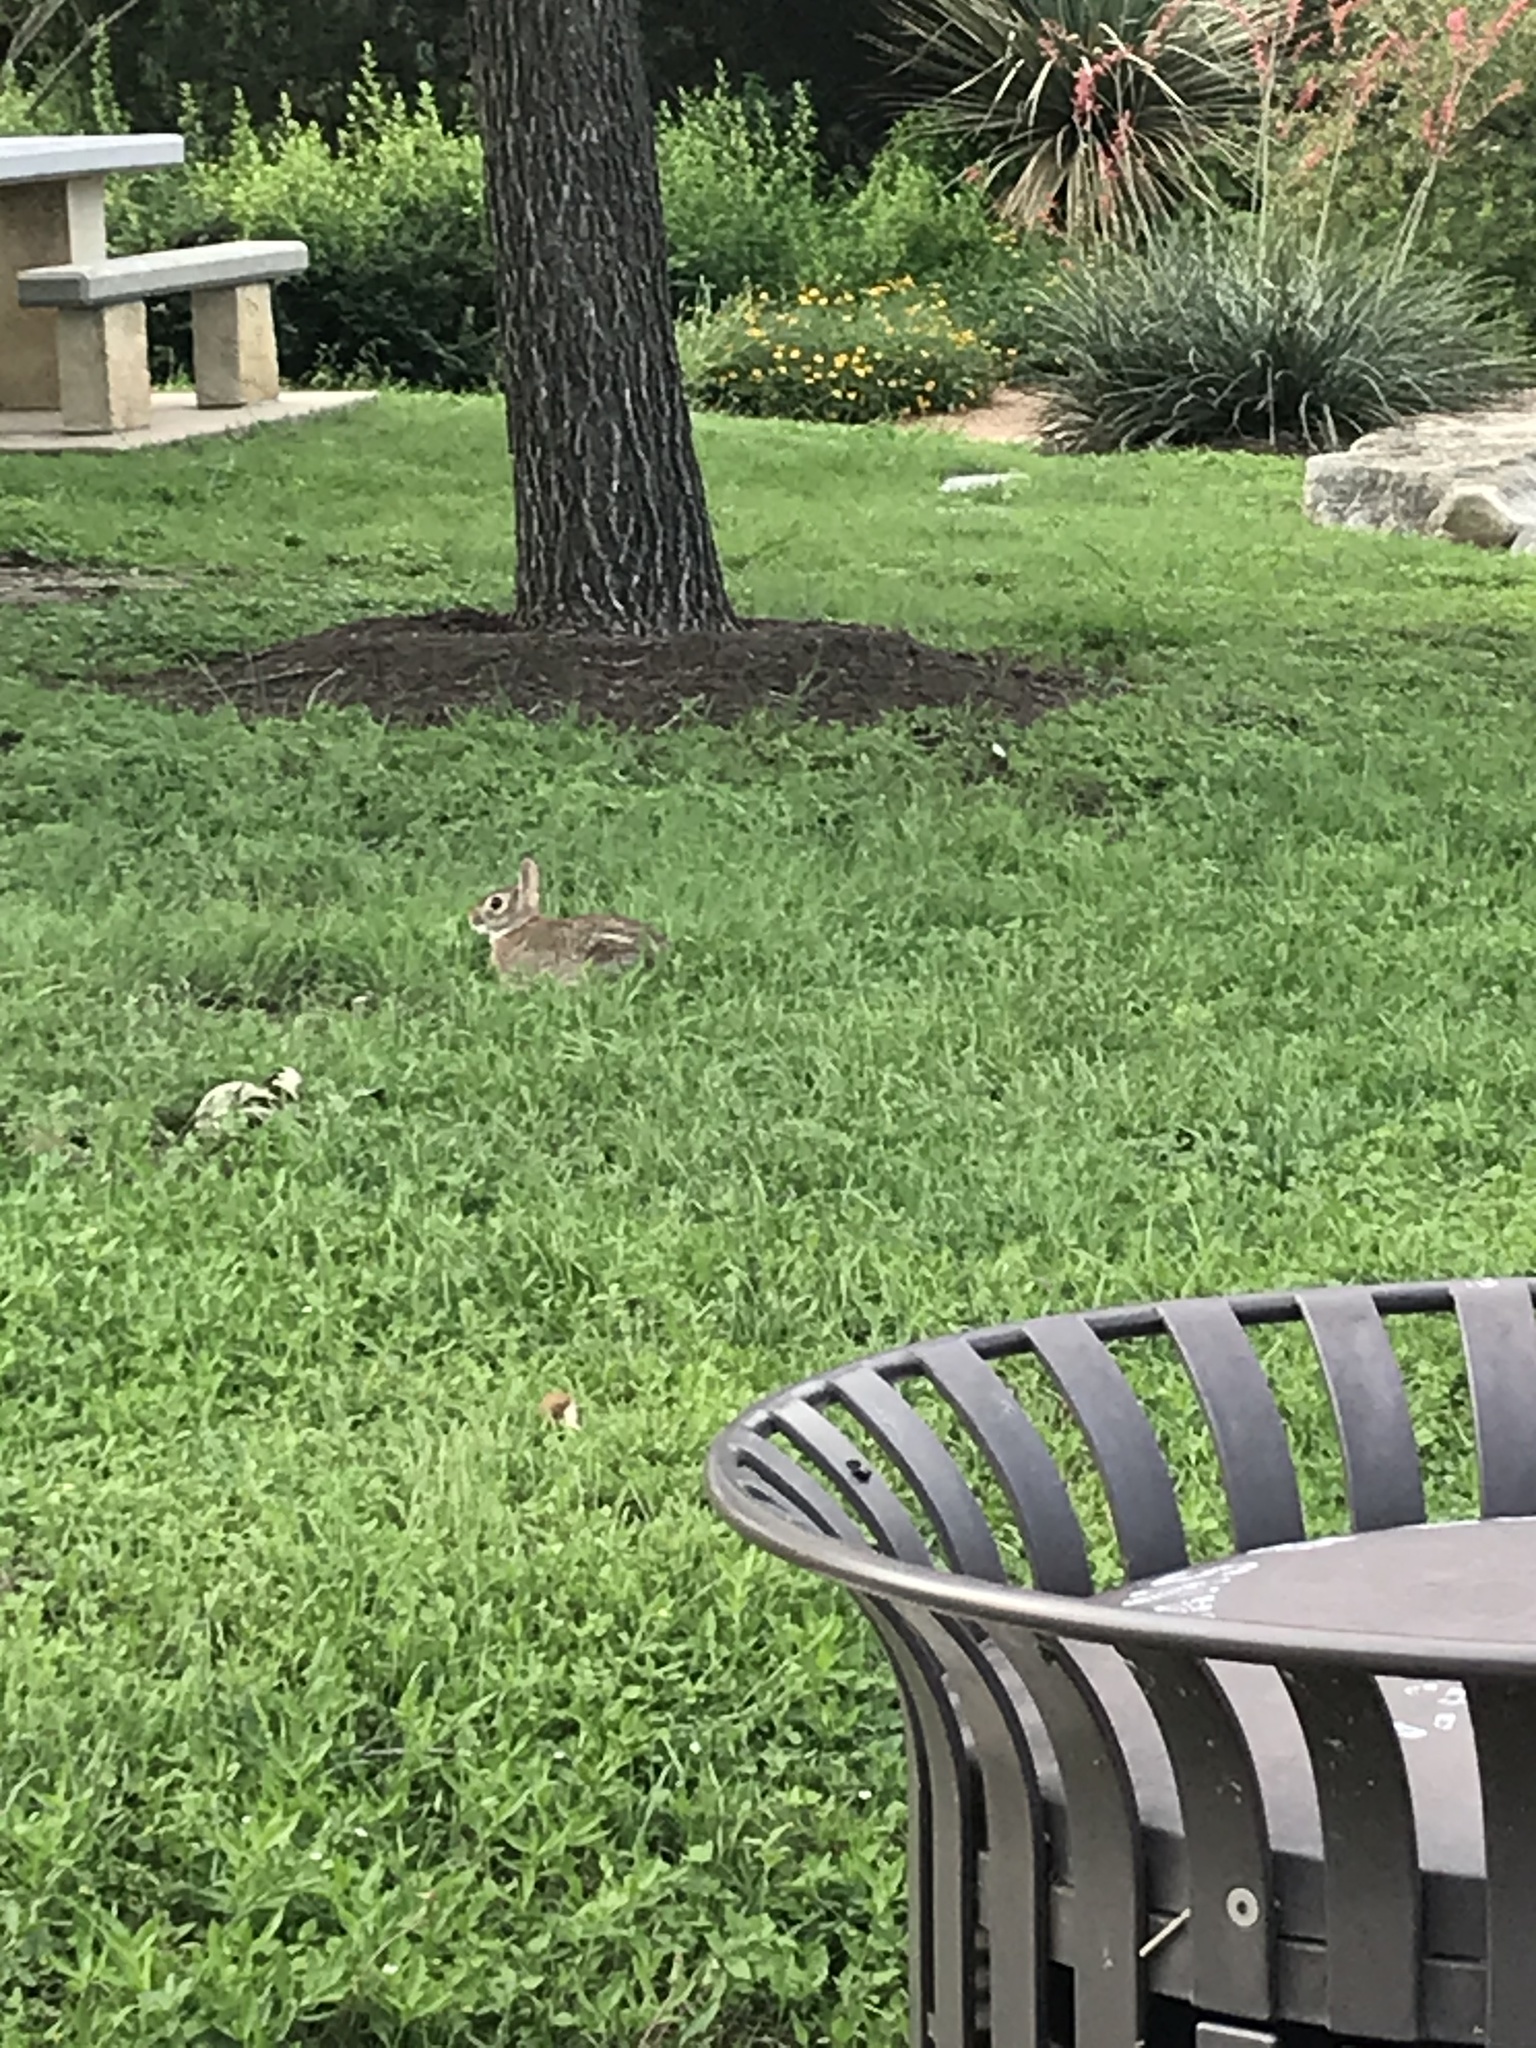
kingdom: Animalia
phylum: Chordata
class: Mammalia
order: Lagomorpha
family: Leporidae
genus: Sylvilagus
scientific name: Sylvilagus floridanus
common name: Eastern cottontail
